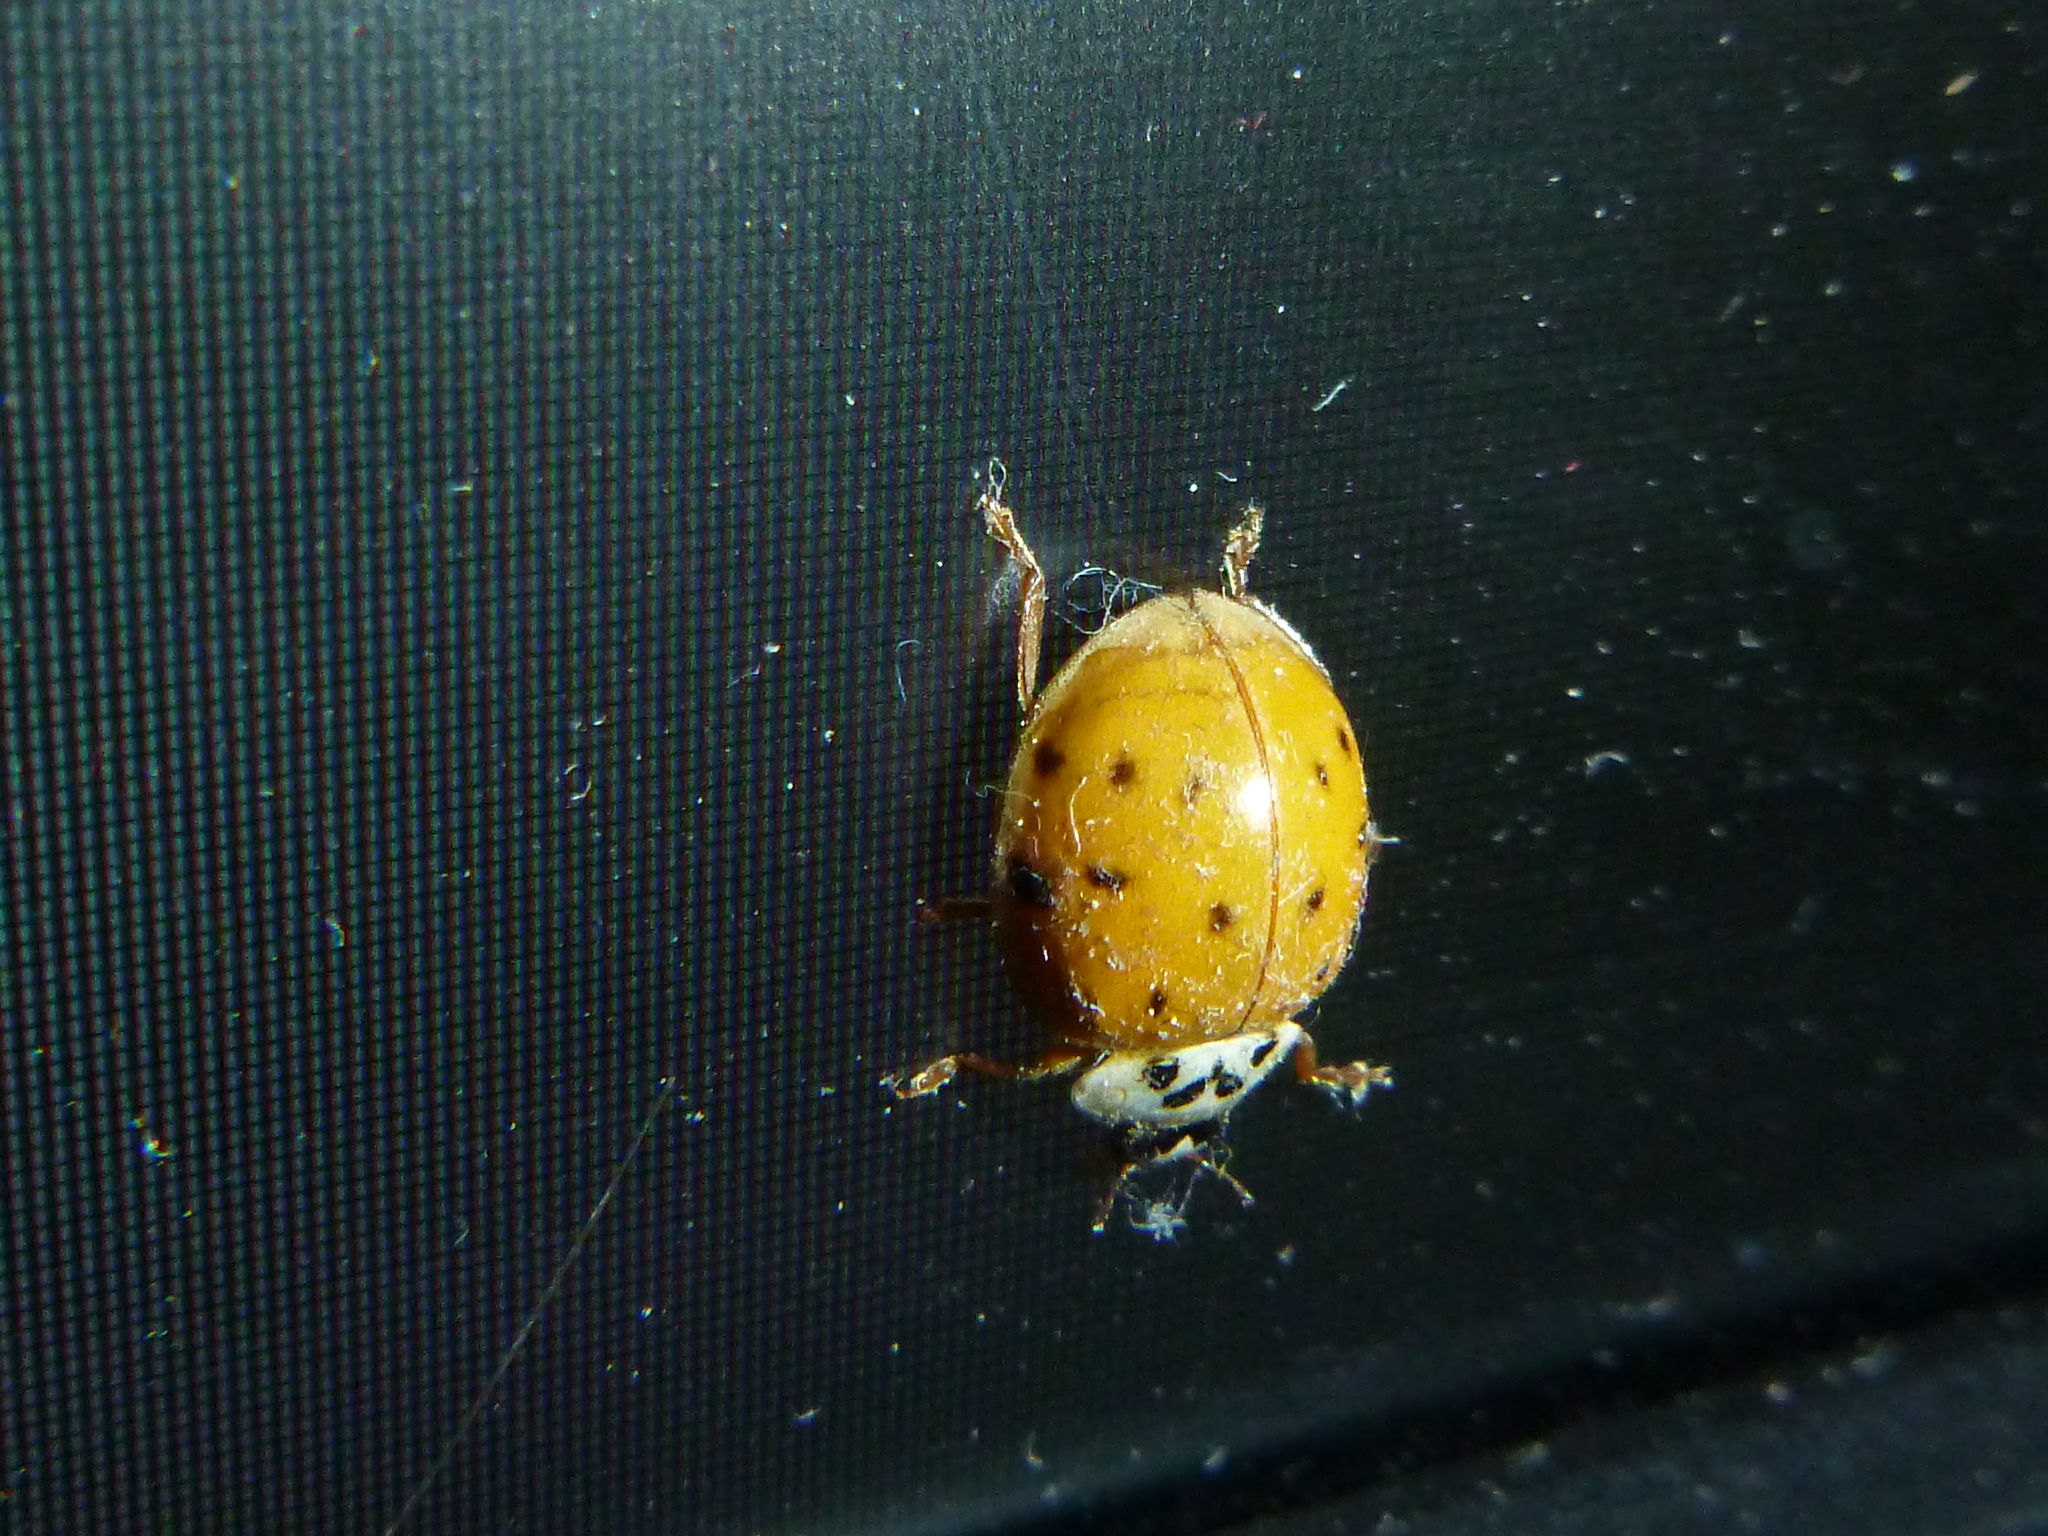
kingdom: Animalia
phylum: Arthropoda
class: Insecta
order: Coleoptera
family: Coccinellidae
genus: Harmonia
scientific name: Harmonia axyridis
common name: Harlequin ladybird
